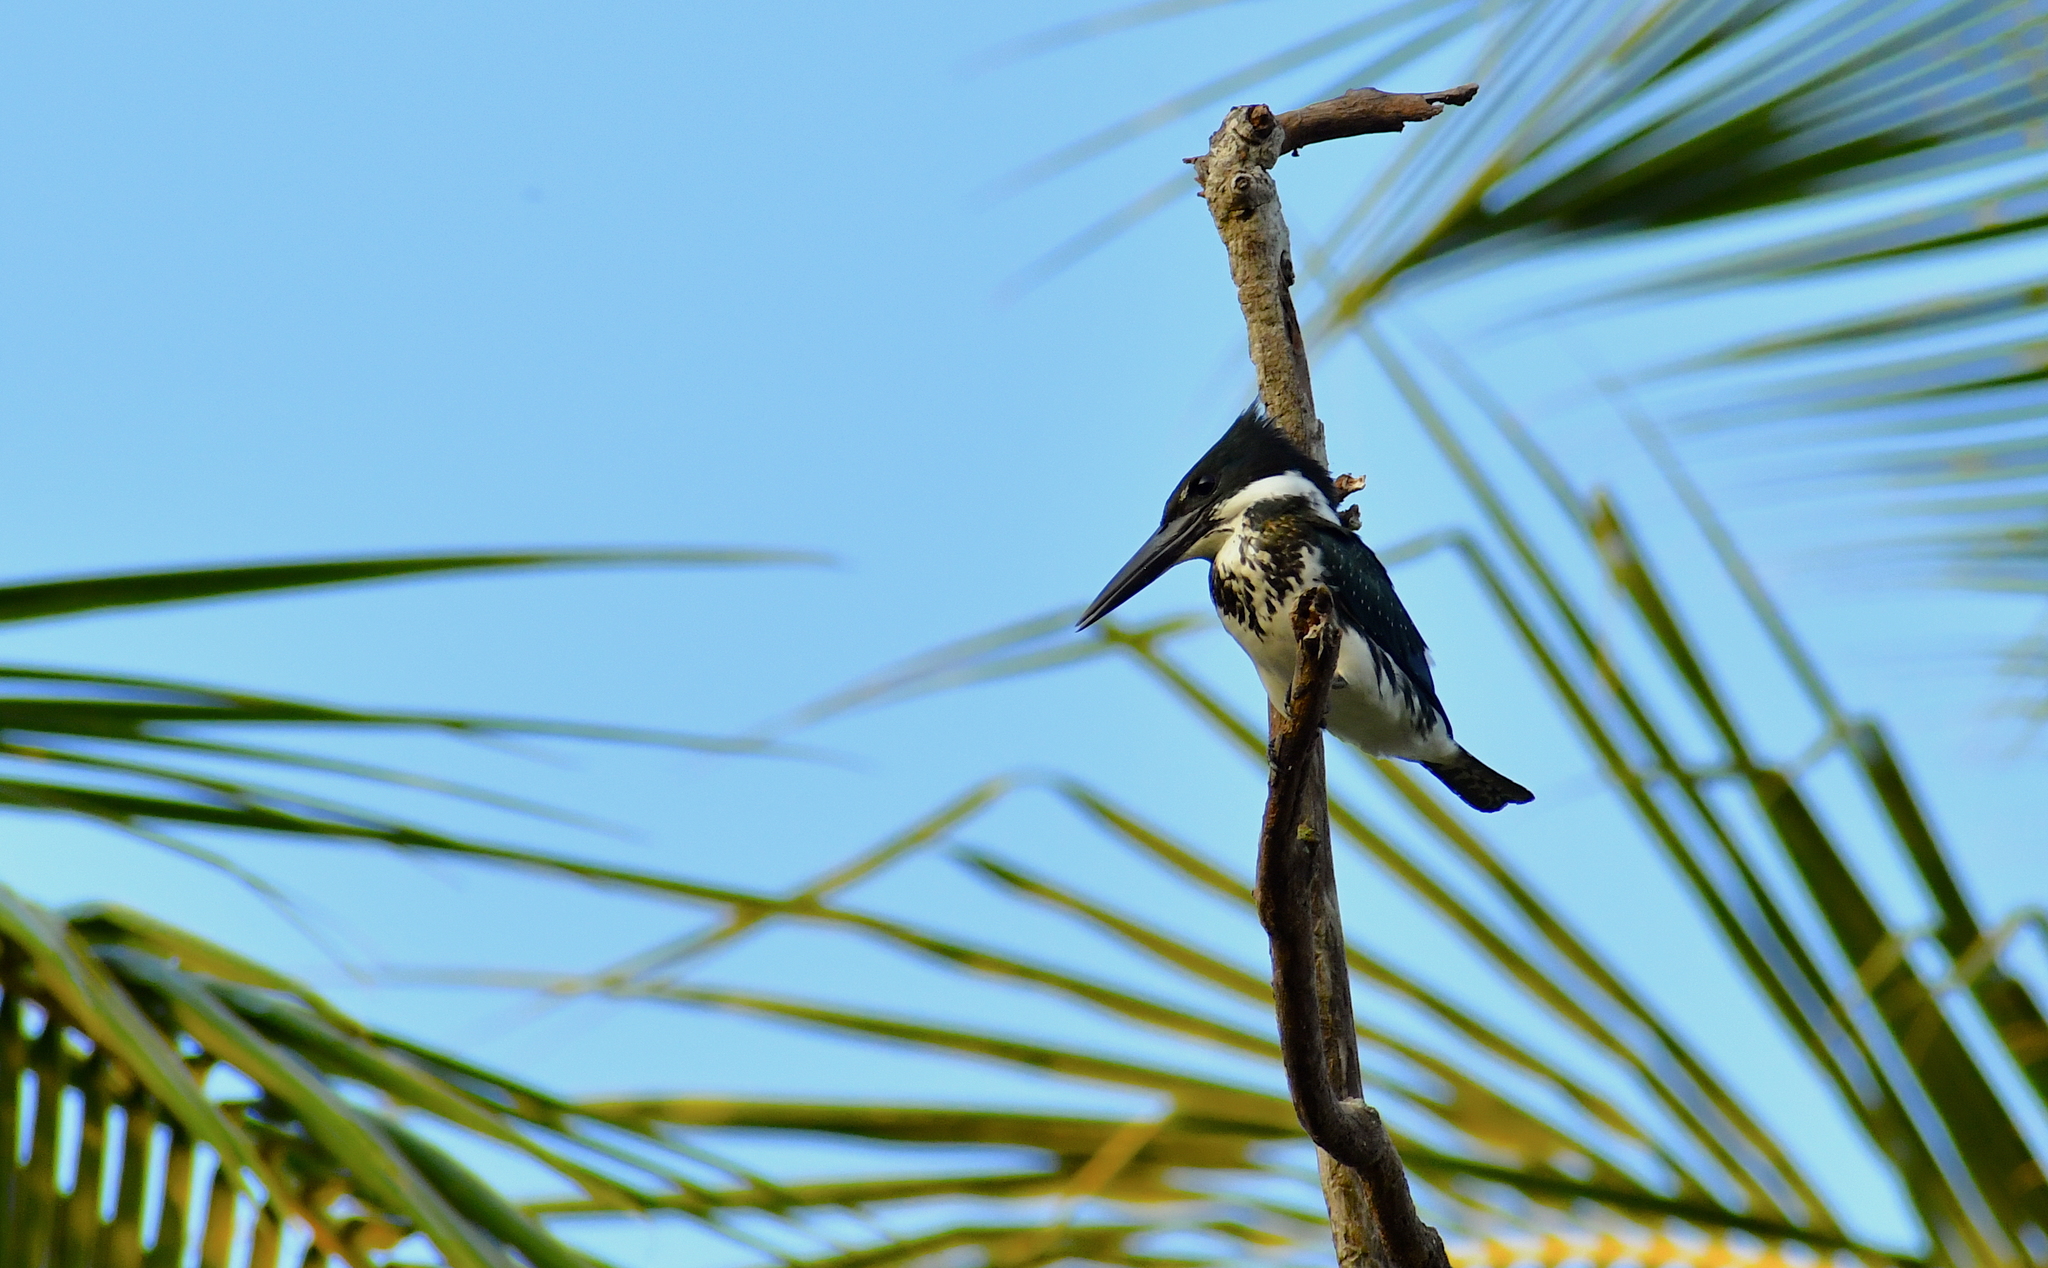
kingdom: Animalia
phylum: Chordata
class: Aves
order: Coraciiformes
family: Alcedinidae
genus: Chloroceryle
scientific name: Chloroceryle amazona
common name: Amazon kingfisher
